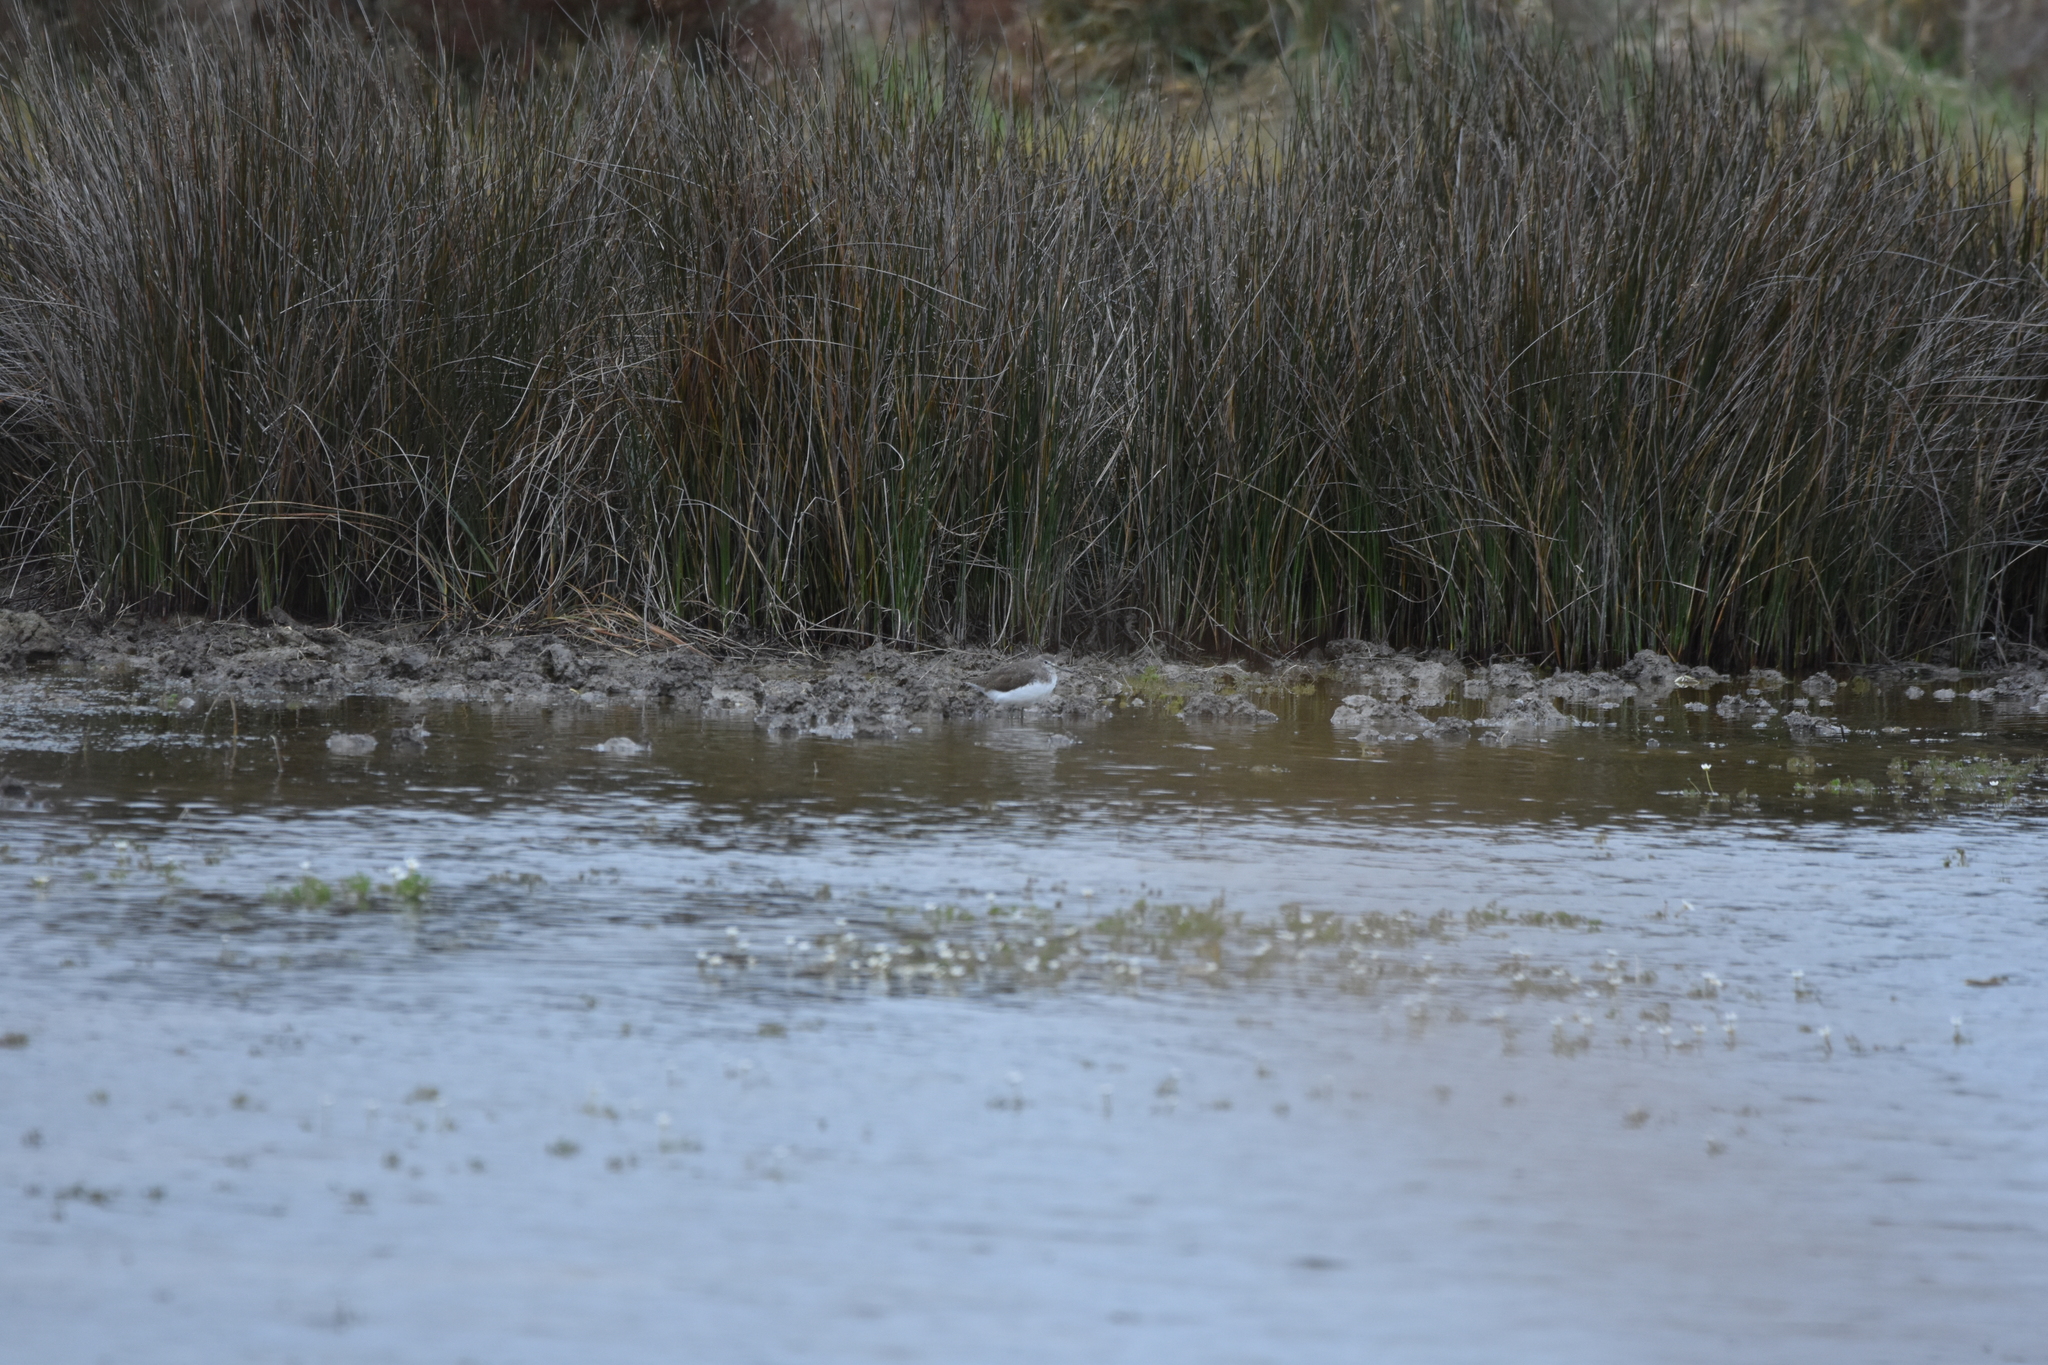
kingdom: Animalia
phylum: Chordata
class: Aves
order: Charadriiformes
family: Scolopacidae
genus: Tringa
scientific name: Tringa ochropus
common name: Green sandpiper
